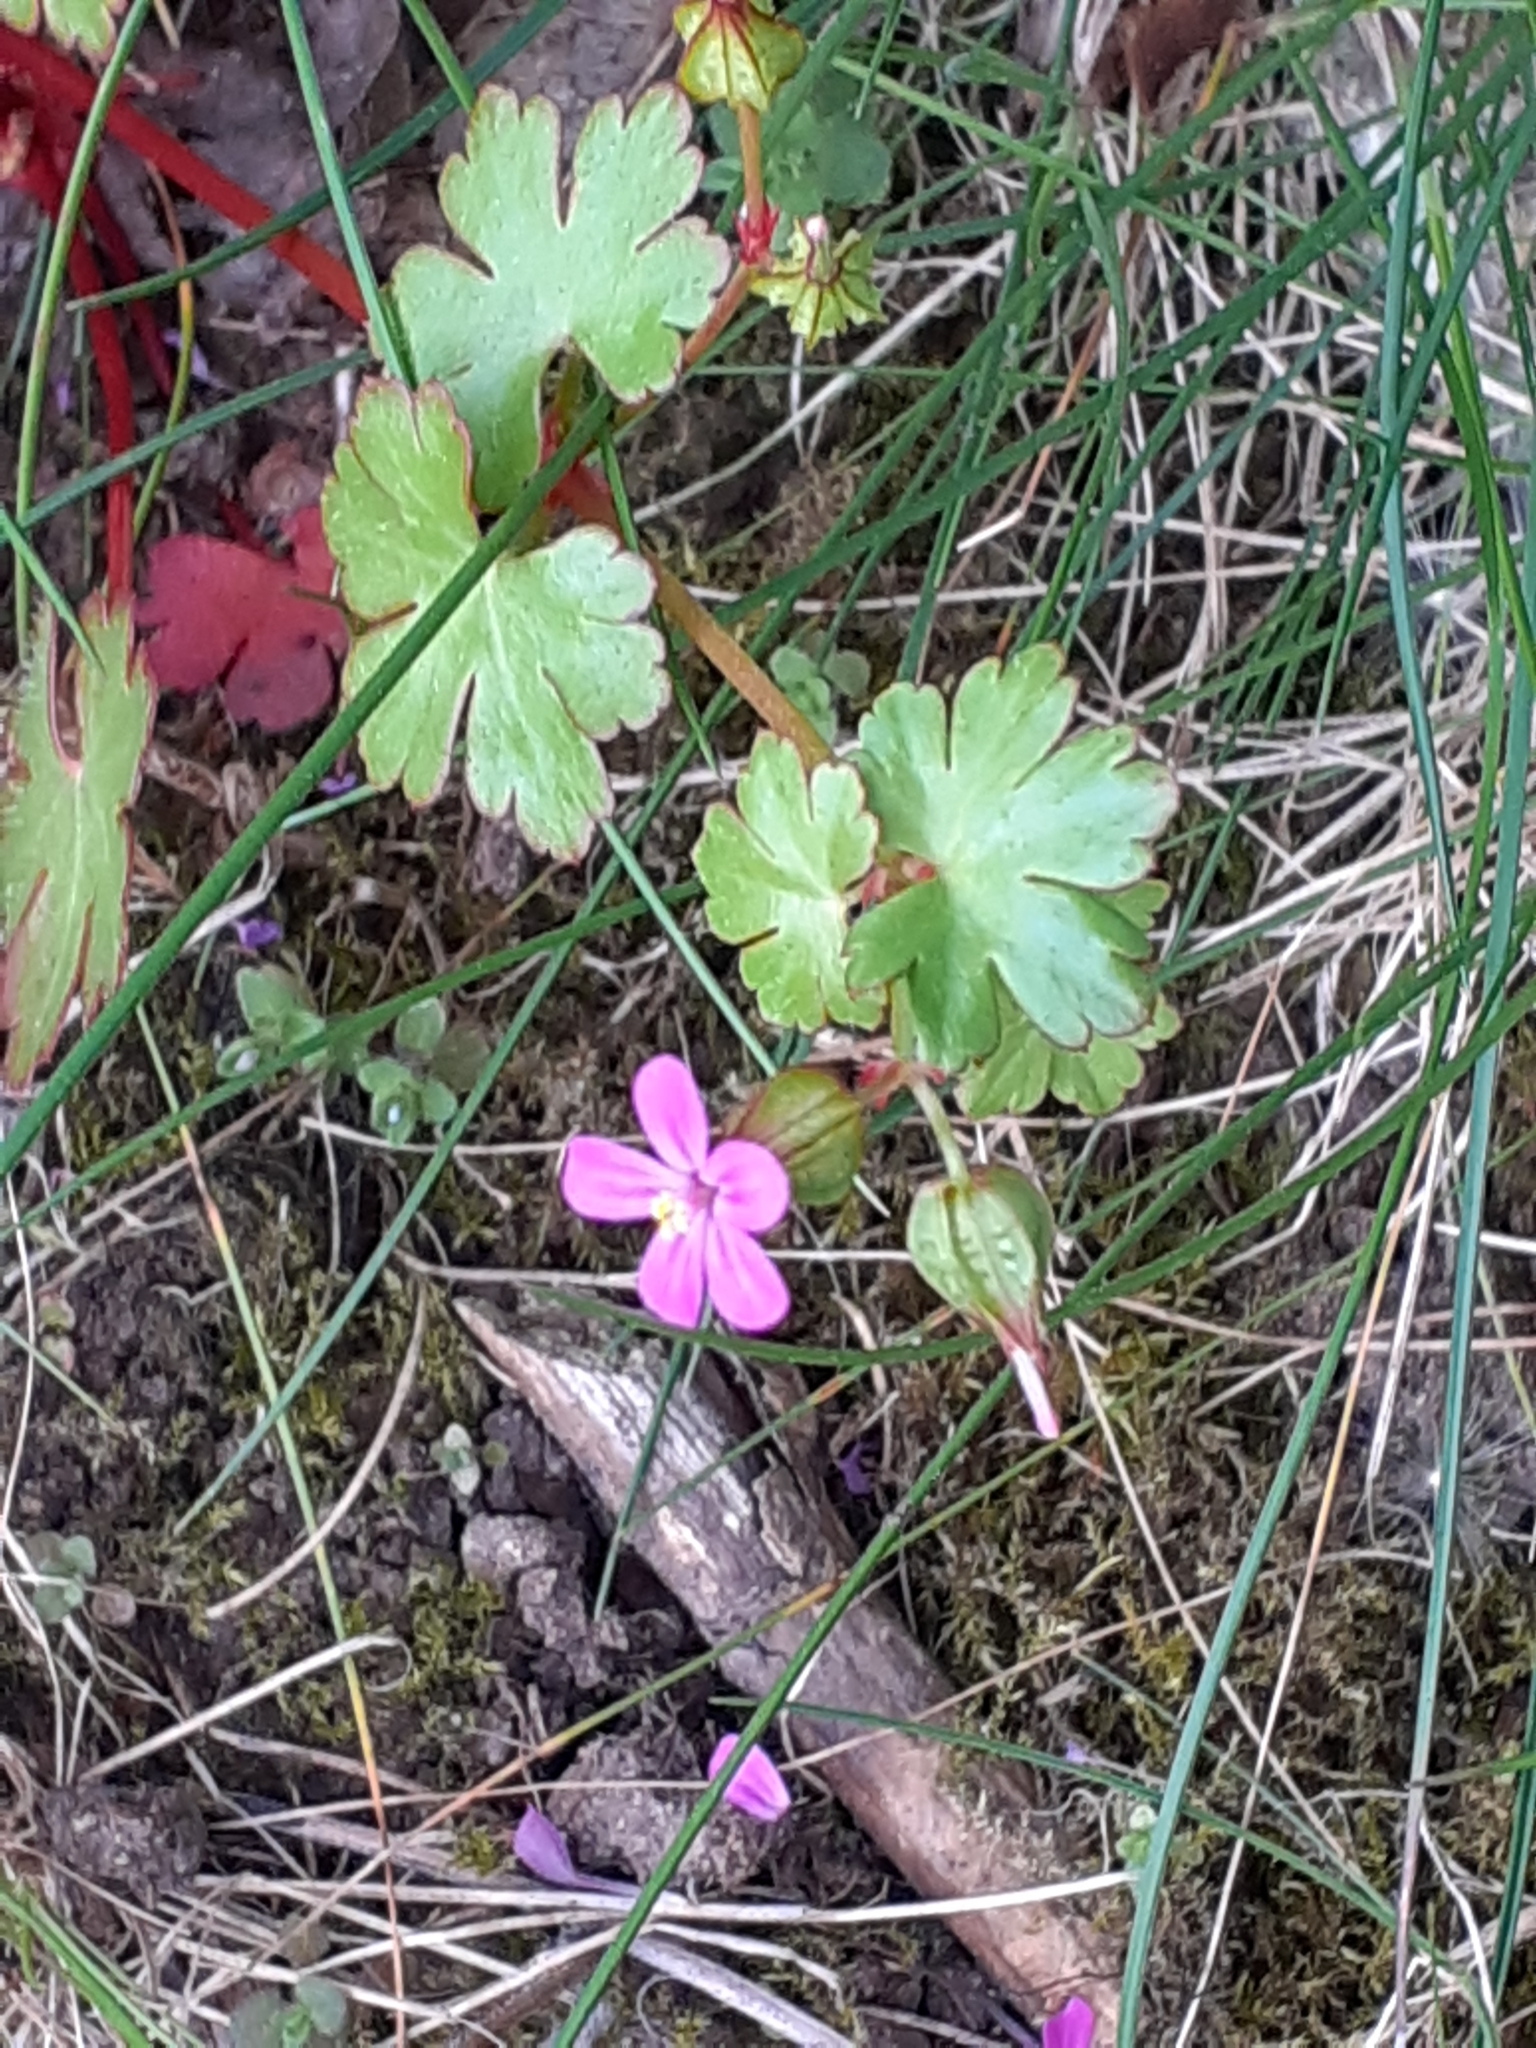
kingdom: Plantae
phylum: Tracheophyta
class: Magnoliopsida
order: Geraniales
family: Geraniaceae
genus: Geranium
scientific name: Geranium lucidum
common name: Shining crane's-bill
